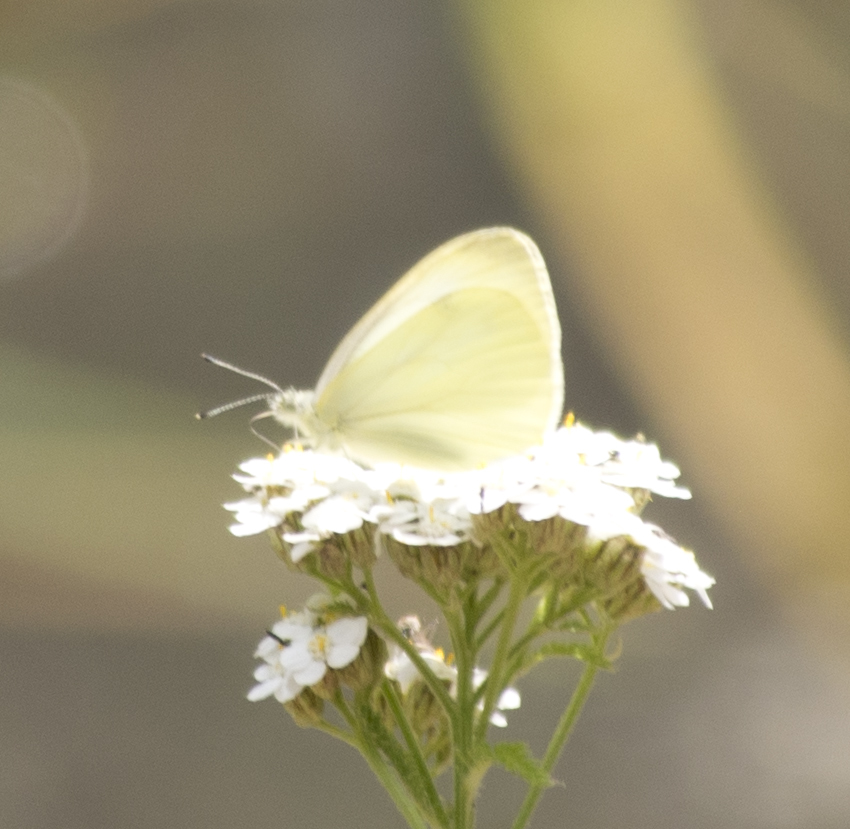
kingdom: Animalia
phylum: Arthropoda
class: Insecta
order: Lepidoptera
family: Pieridae
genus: Pieris
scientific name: Pieris marginalis
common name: Margined white
